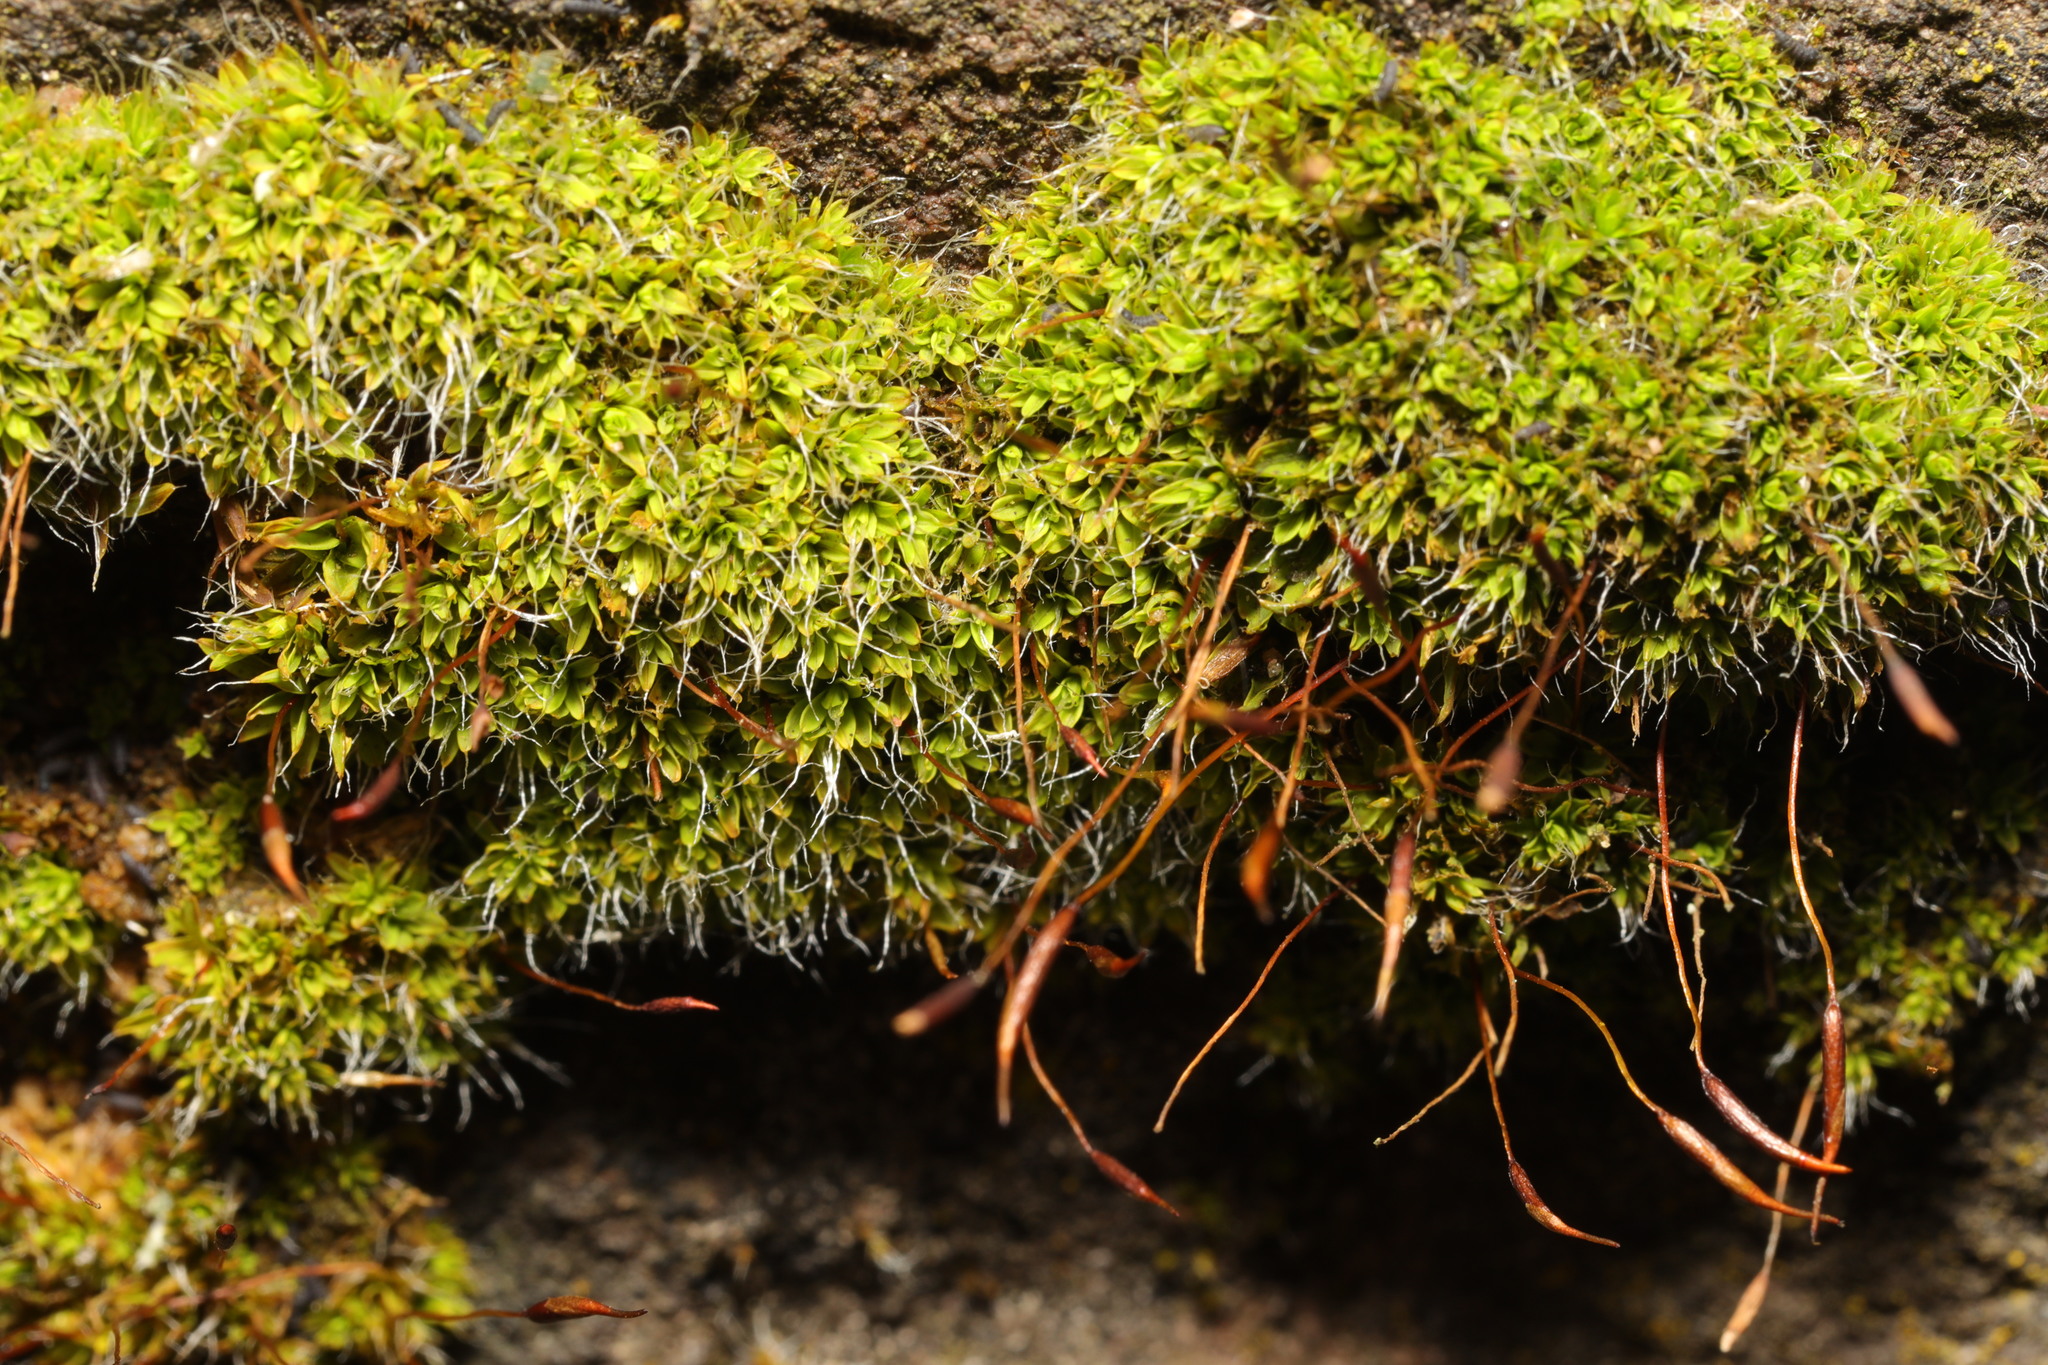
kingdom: Plantae
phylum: Bryophyta
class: Bryopsida
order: Pottiales
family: Pottiaceae
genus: Tortula
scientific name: Tortula muralis
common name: Wall screw-moss
